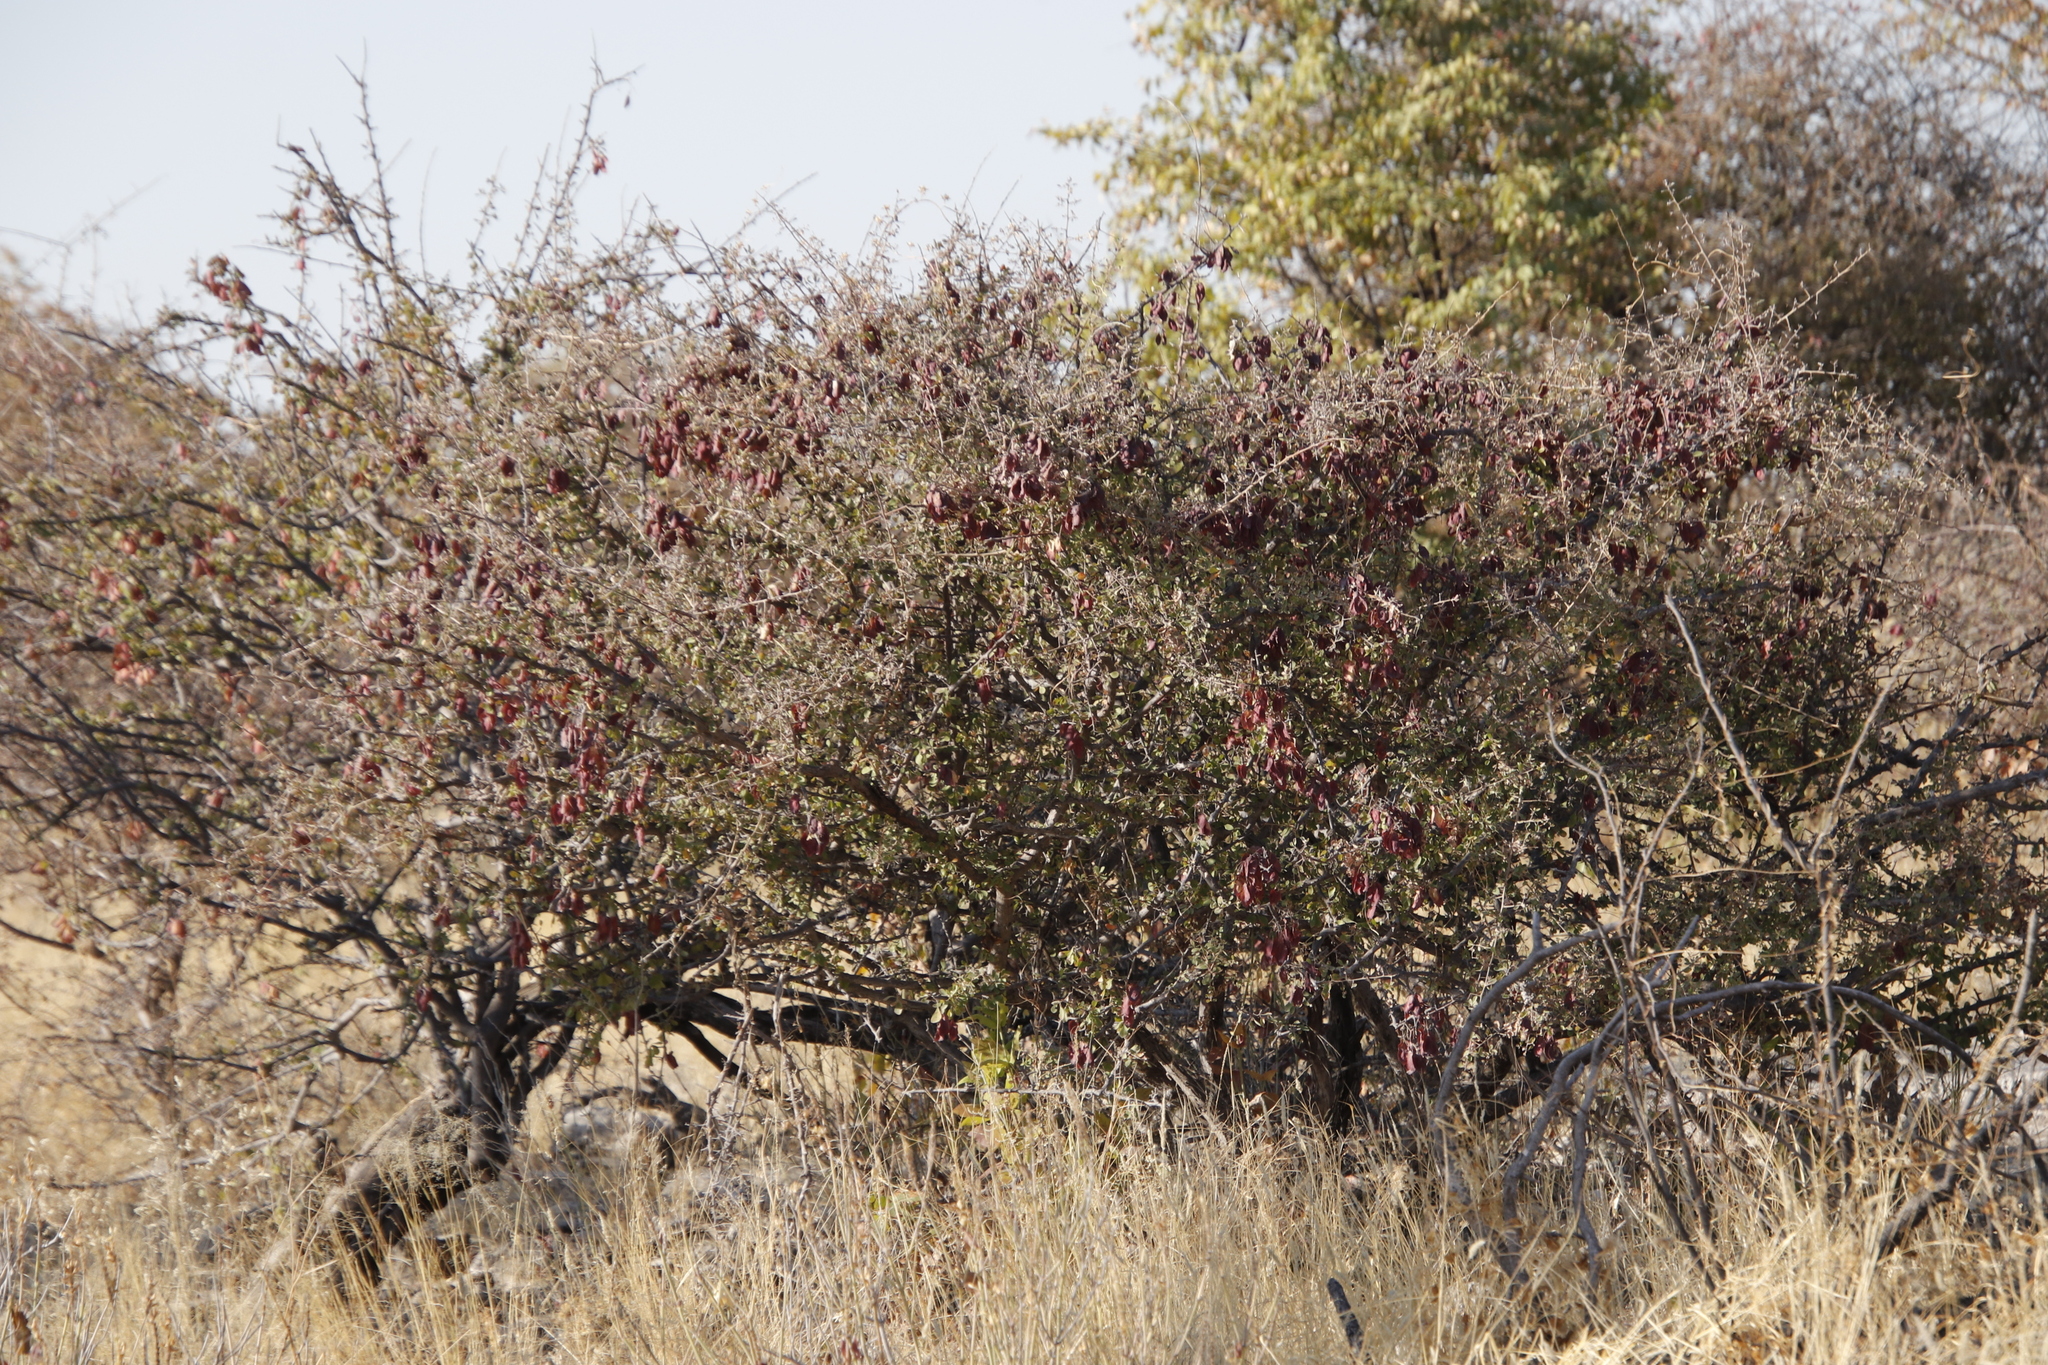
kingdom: Plantae
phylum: Tracheophyta
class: Magnoliopsida
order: Myrtales
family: Combretaceae
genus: Terminalia
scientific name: Terminalia prunioides
